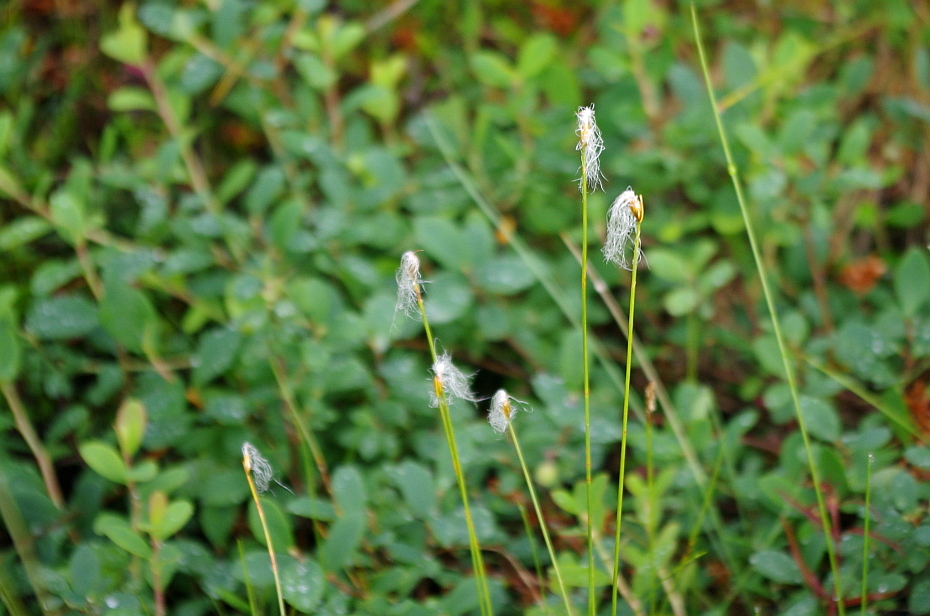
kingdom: Plantae
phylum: Tracheophyta
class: Liliopsida
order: Poales
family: Cyperaceae
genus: Trichophorum
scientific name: Trichophorum alpinum
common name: Alpine bulrush
